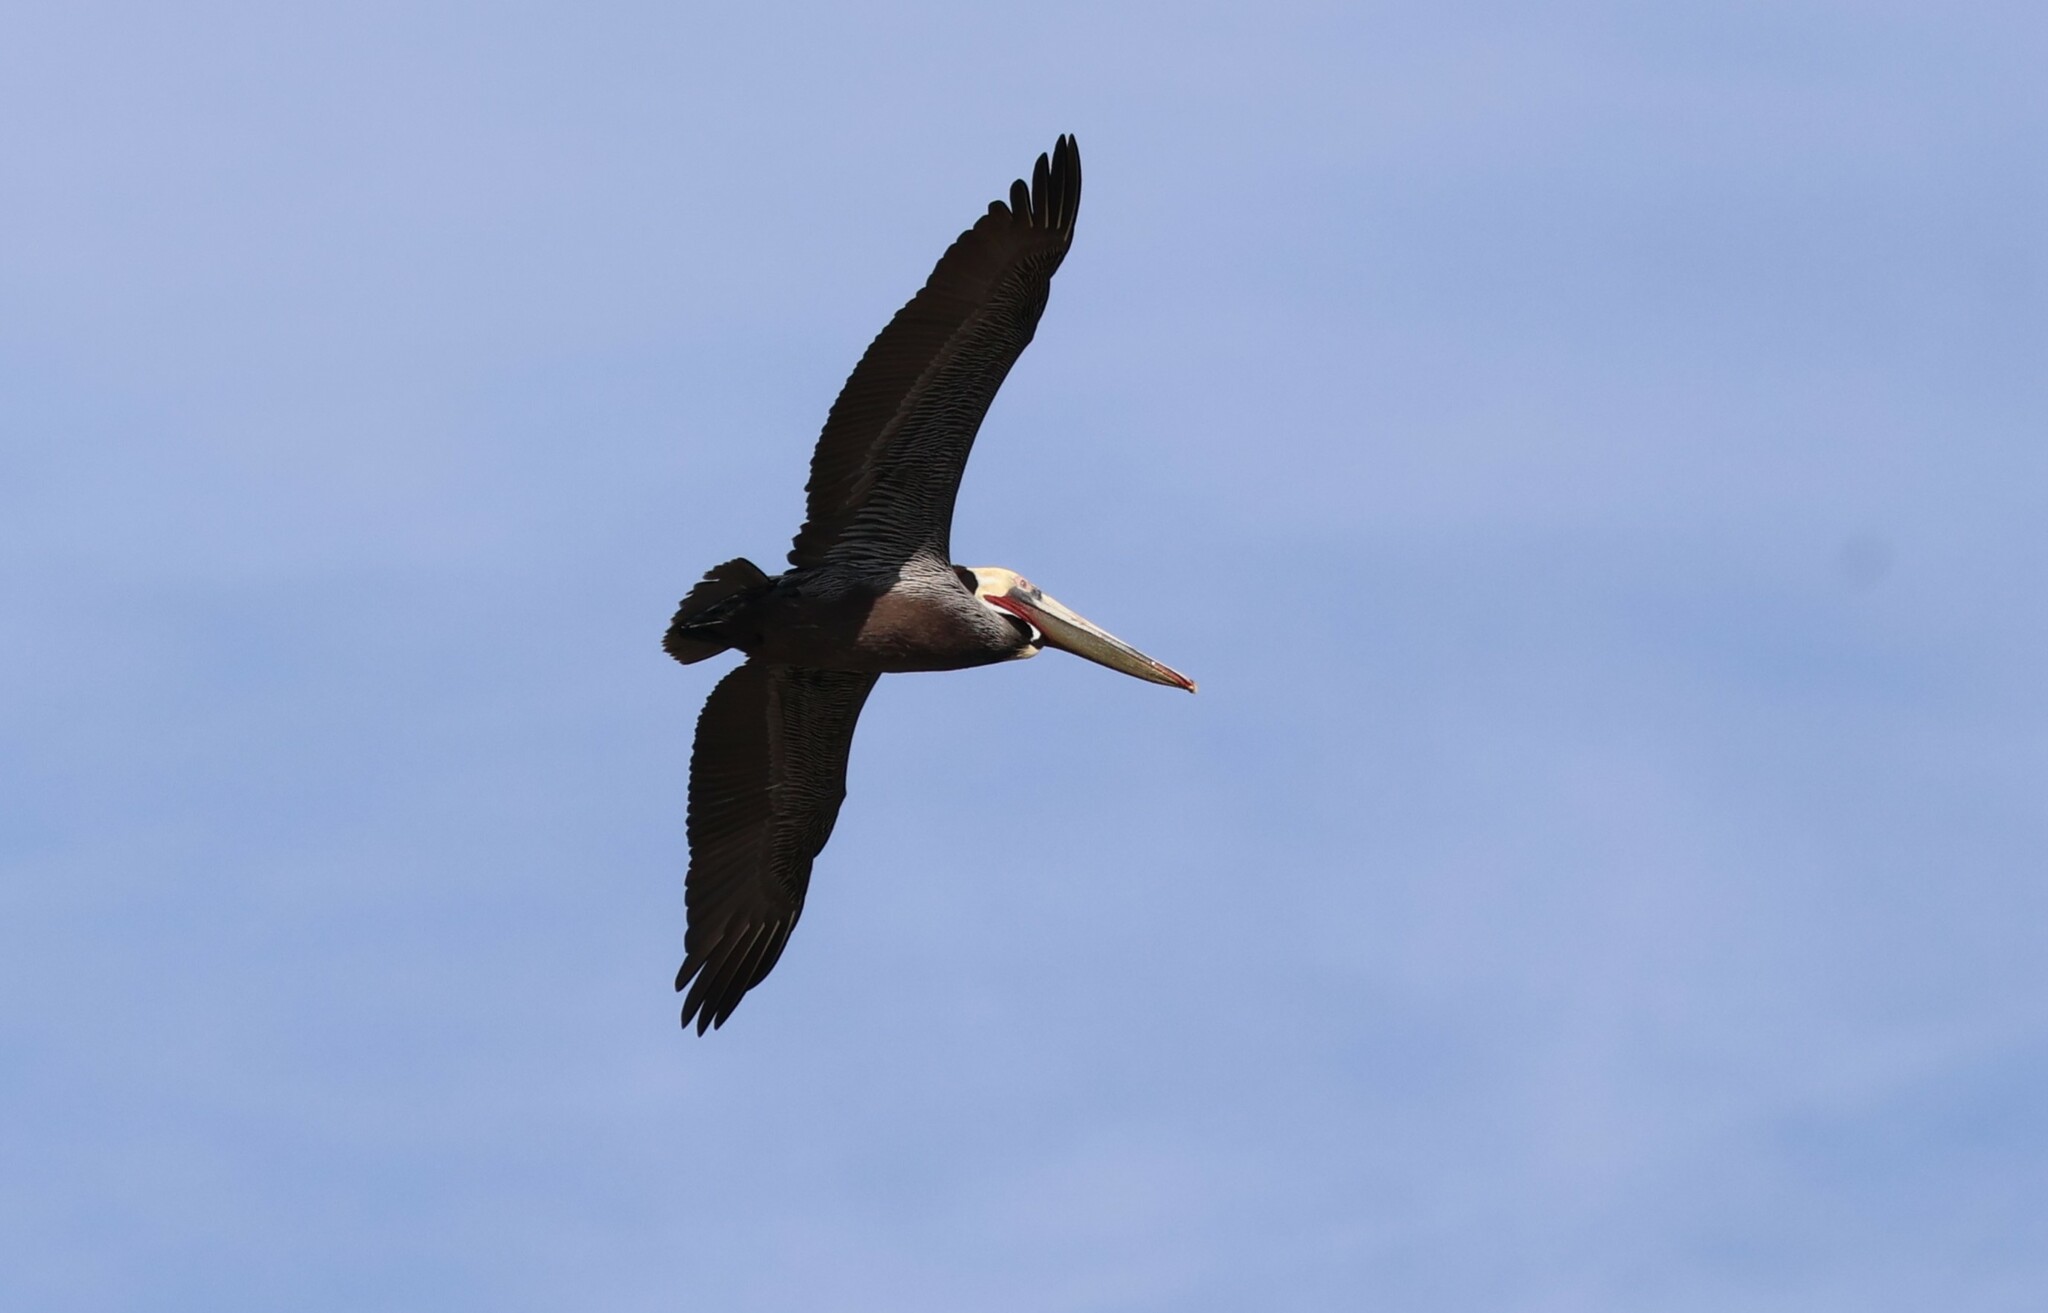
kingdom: Animalia
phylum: Chordata
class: Aves
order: Pelecaniformes
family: Pelecanidae
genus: Pelecanus
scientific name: Pelecanus occidentalis
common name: Brown pelican
